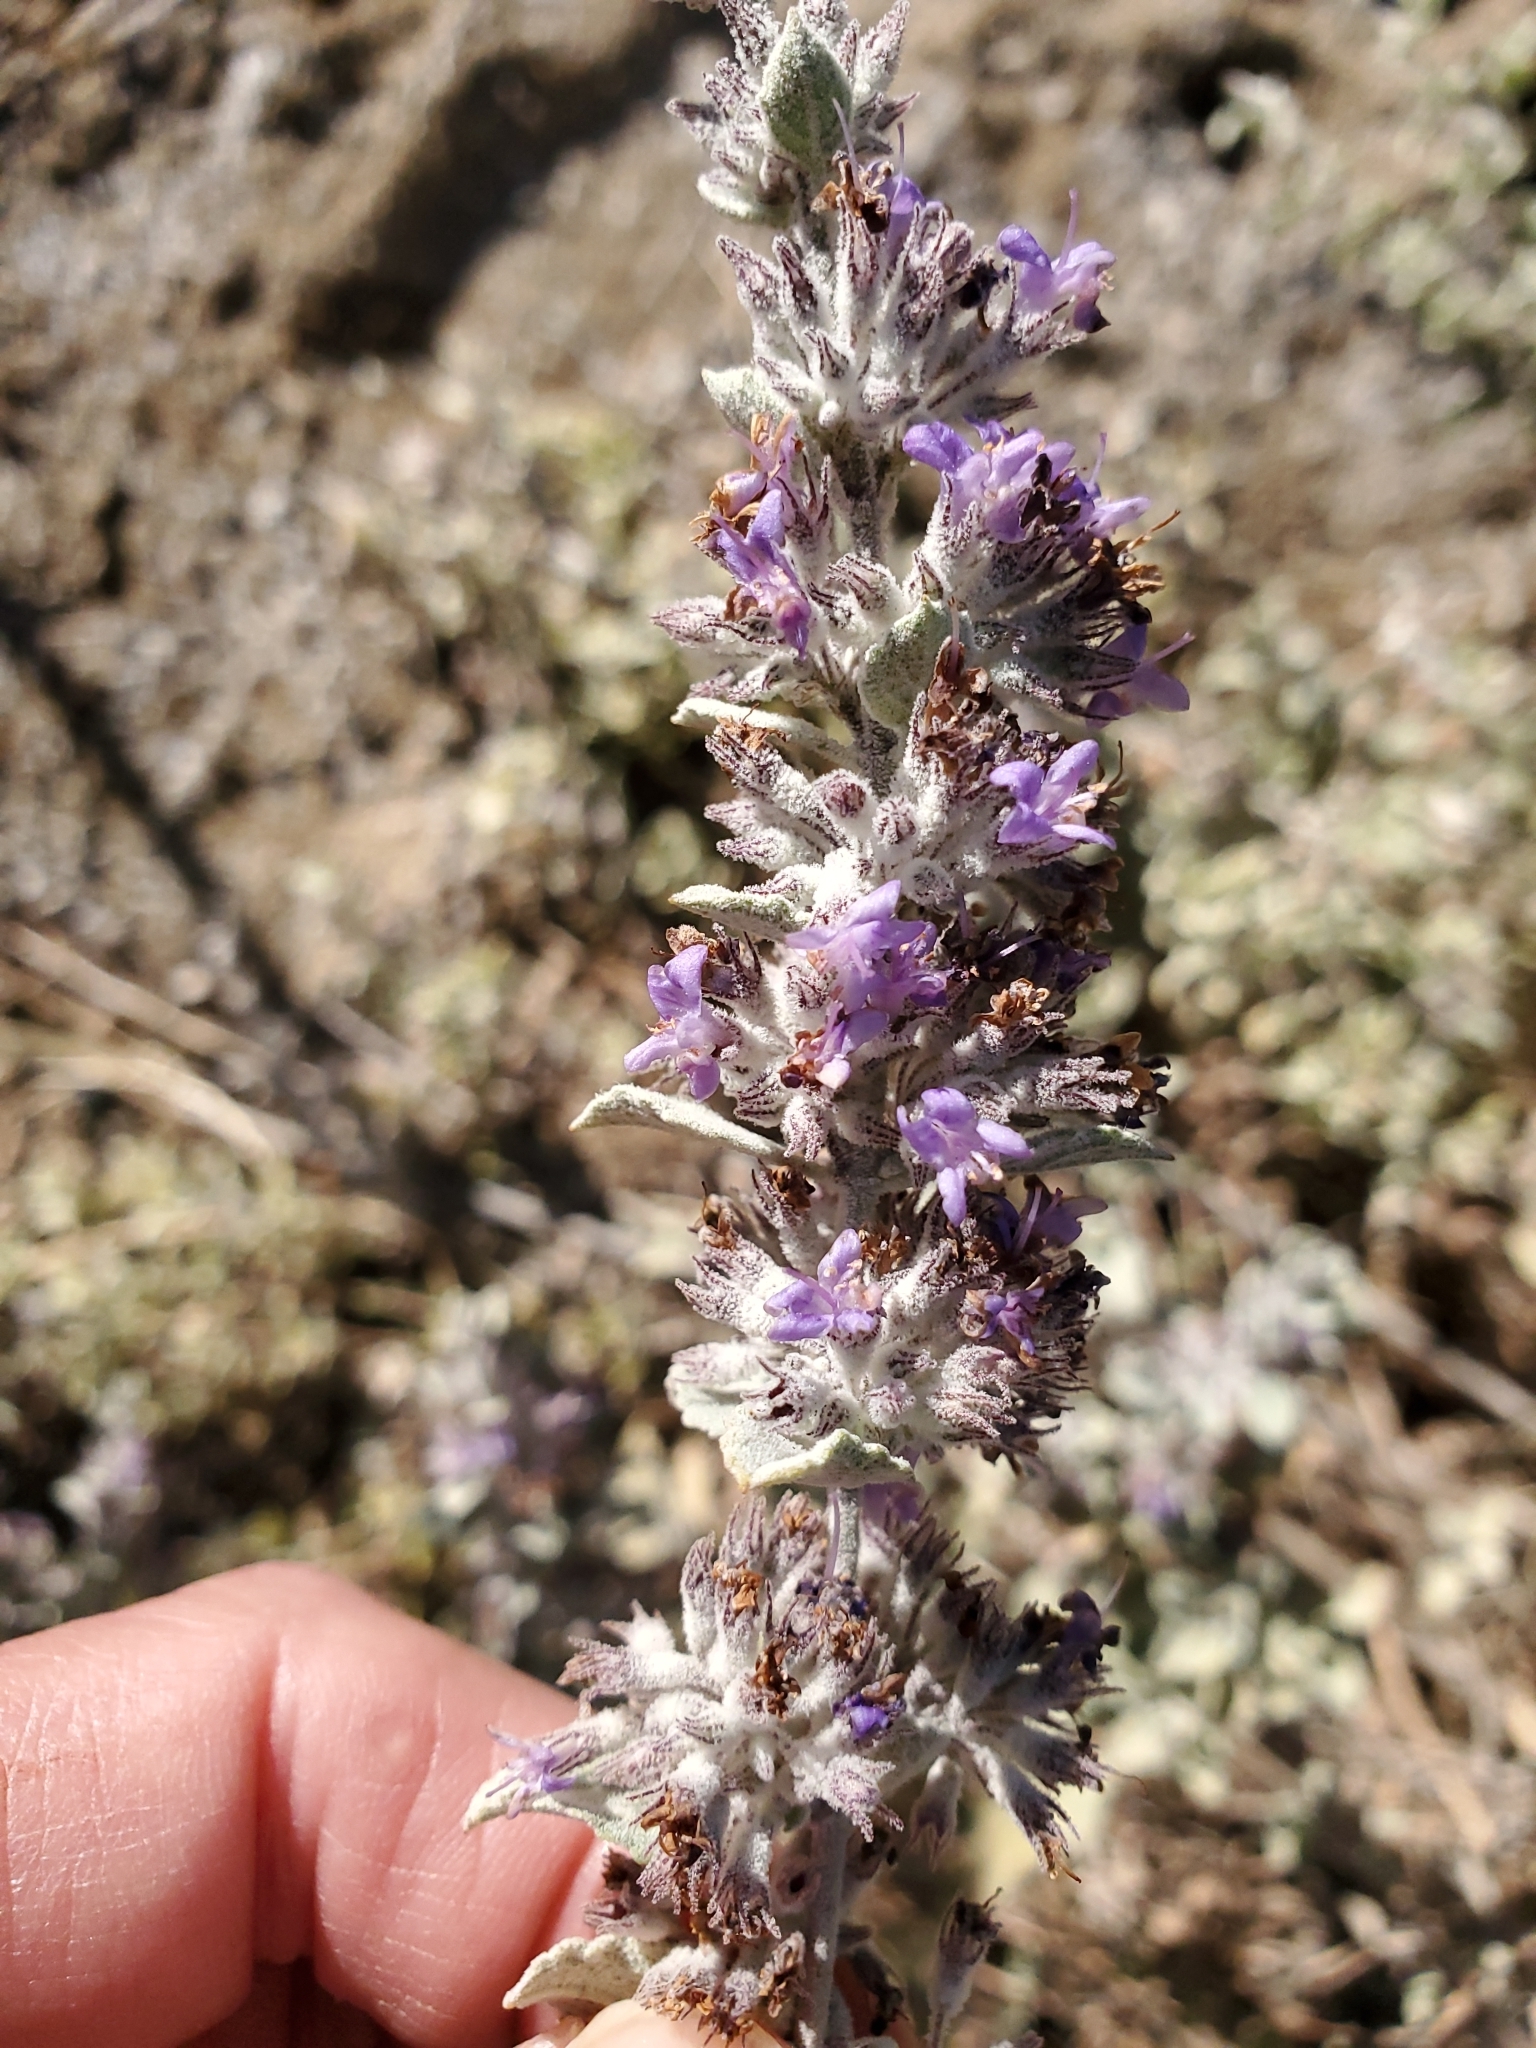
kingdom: Plantae
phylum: Tracheophyta
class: Magnoliopsida
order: Lamiales
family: Lamiaceae
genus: Condea
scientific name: Condea emoryi
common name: Chia
